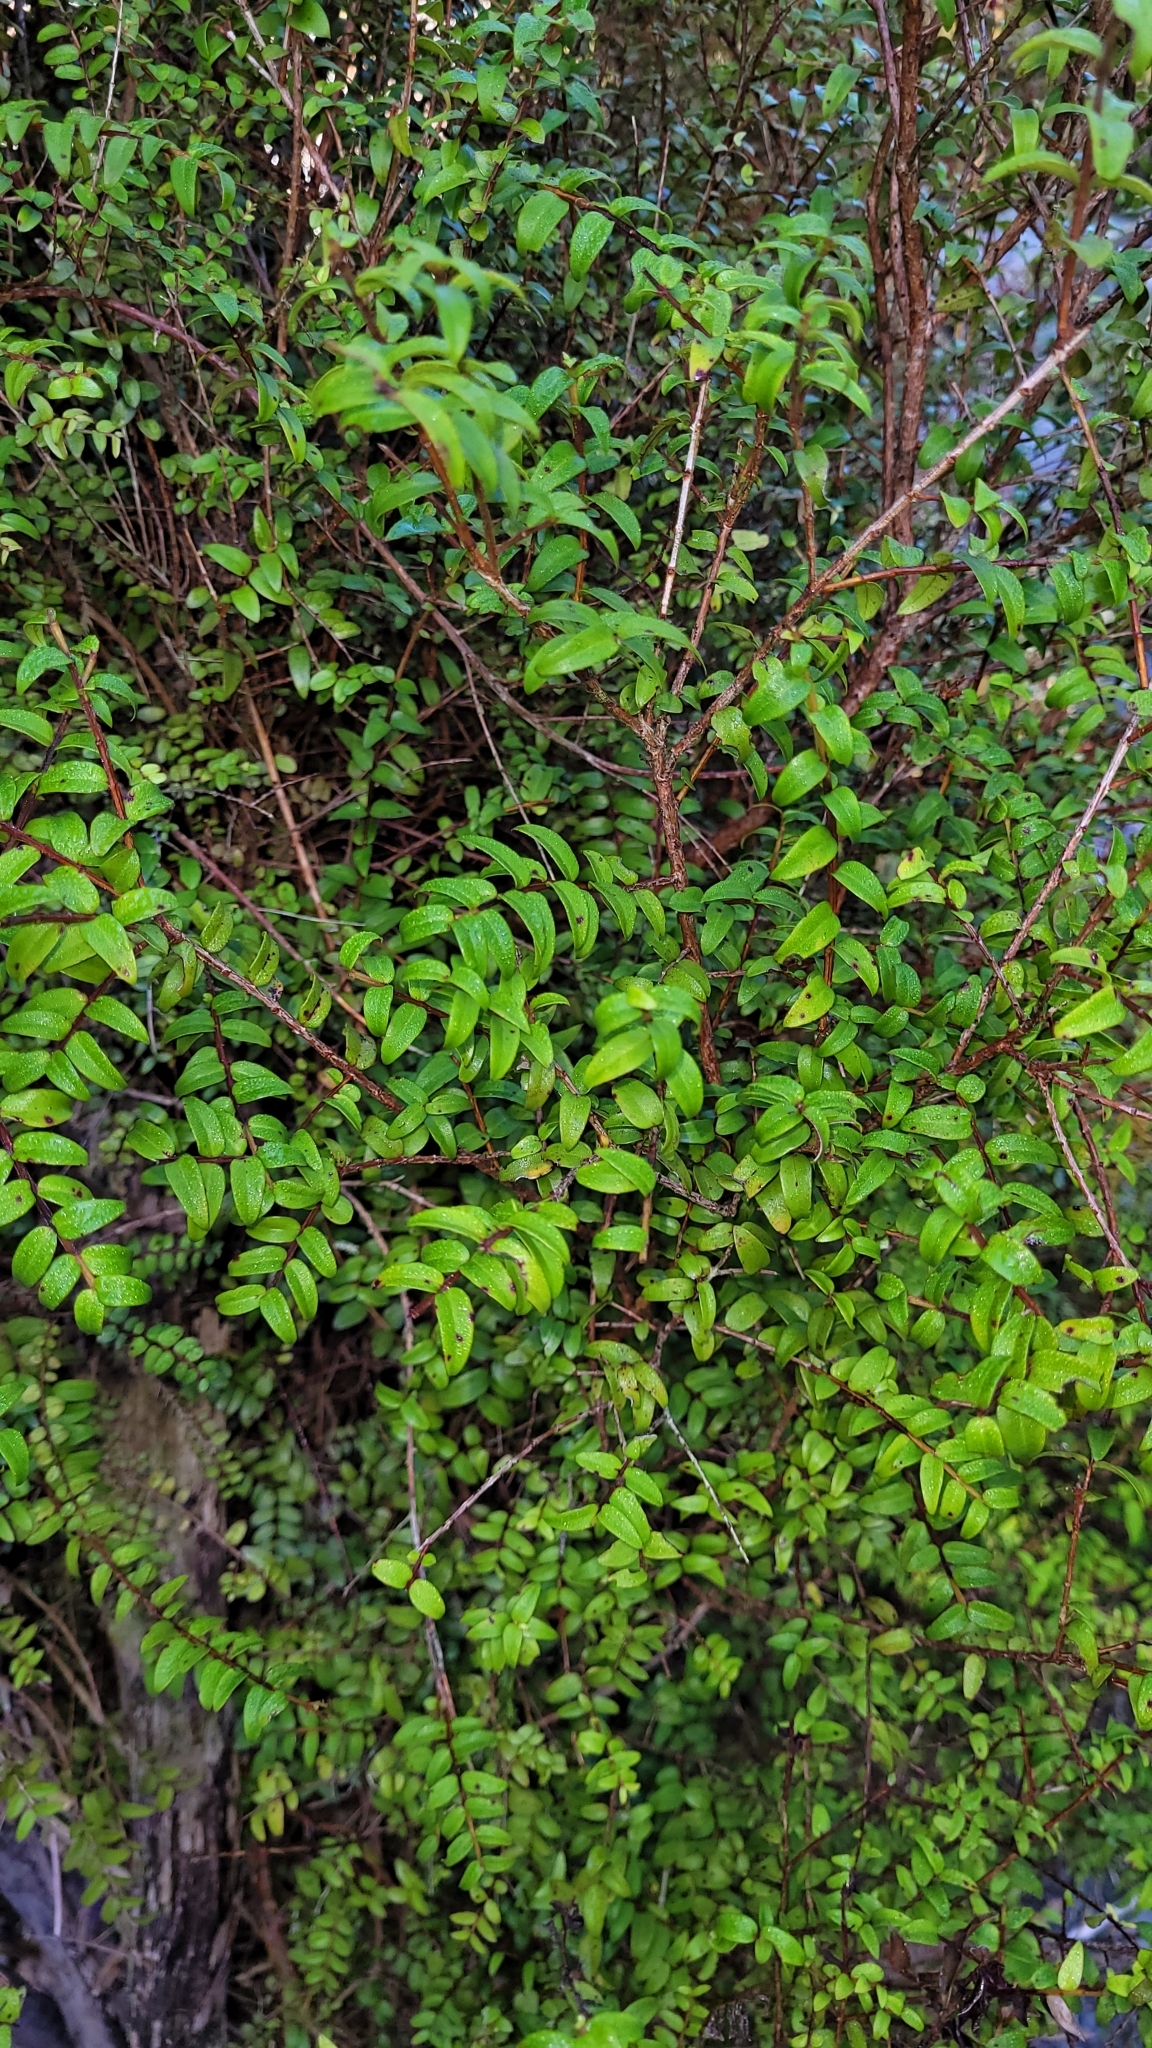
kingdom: Plantae
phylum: Tracheophyta
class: Magnoliopsida
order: Myrtales
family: Myrtaceae
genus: Metrosideros
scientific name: Metrosideros diffusa
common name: Small ratavine
